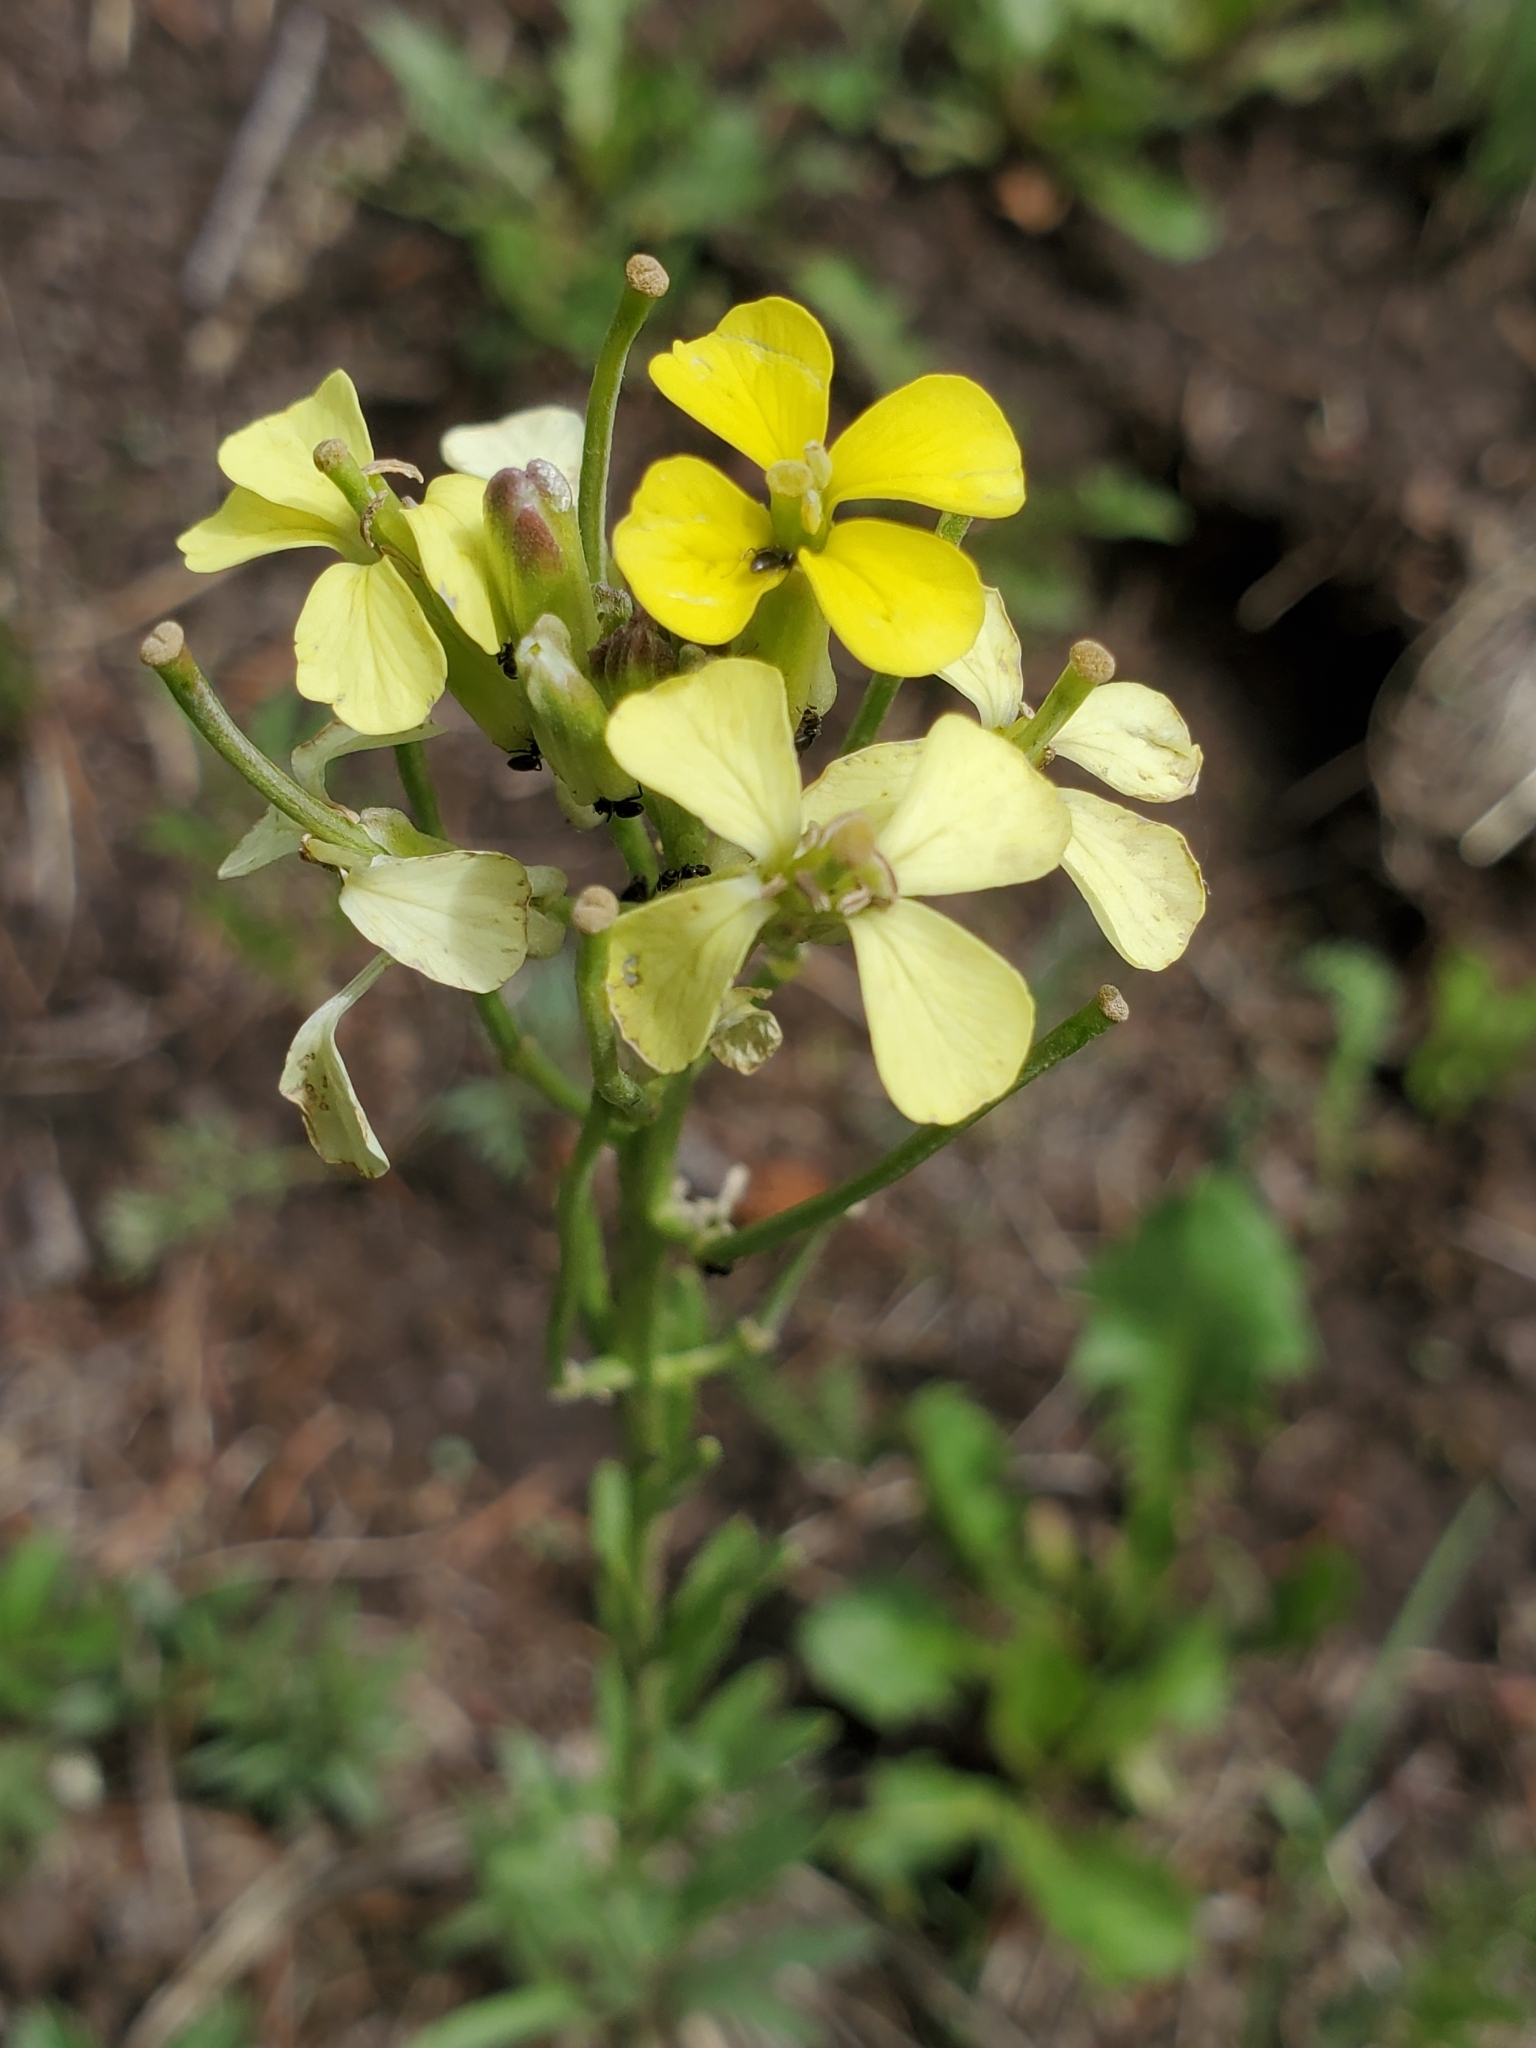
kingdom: Plantae
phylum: Tracheophyta
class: Magnoliopsida
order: Brassicales
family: Brassicaceae
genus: Erysimum
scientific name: Erysimum capitatum
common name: Western wallflower
